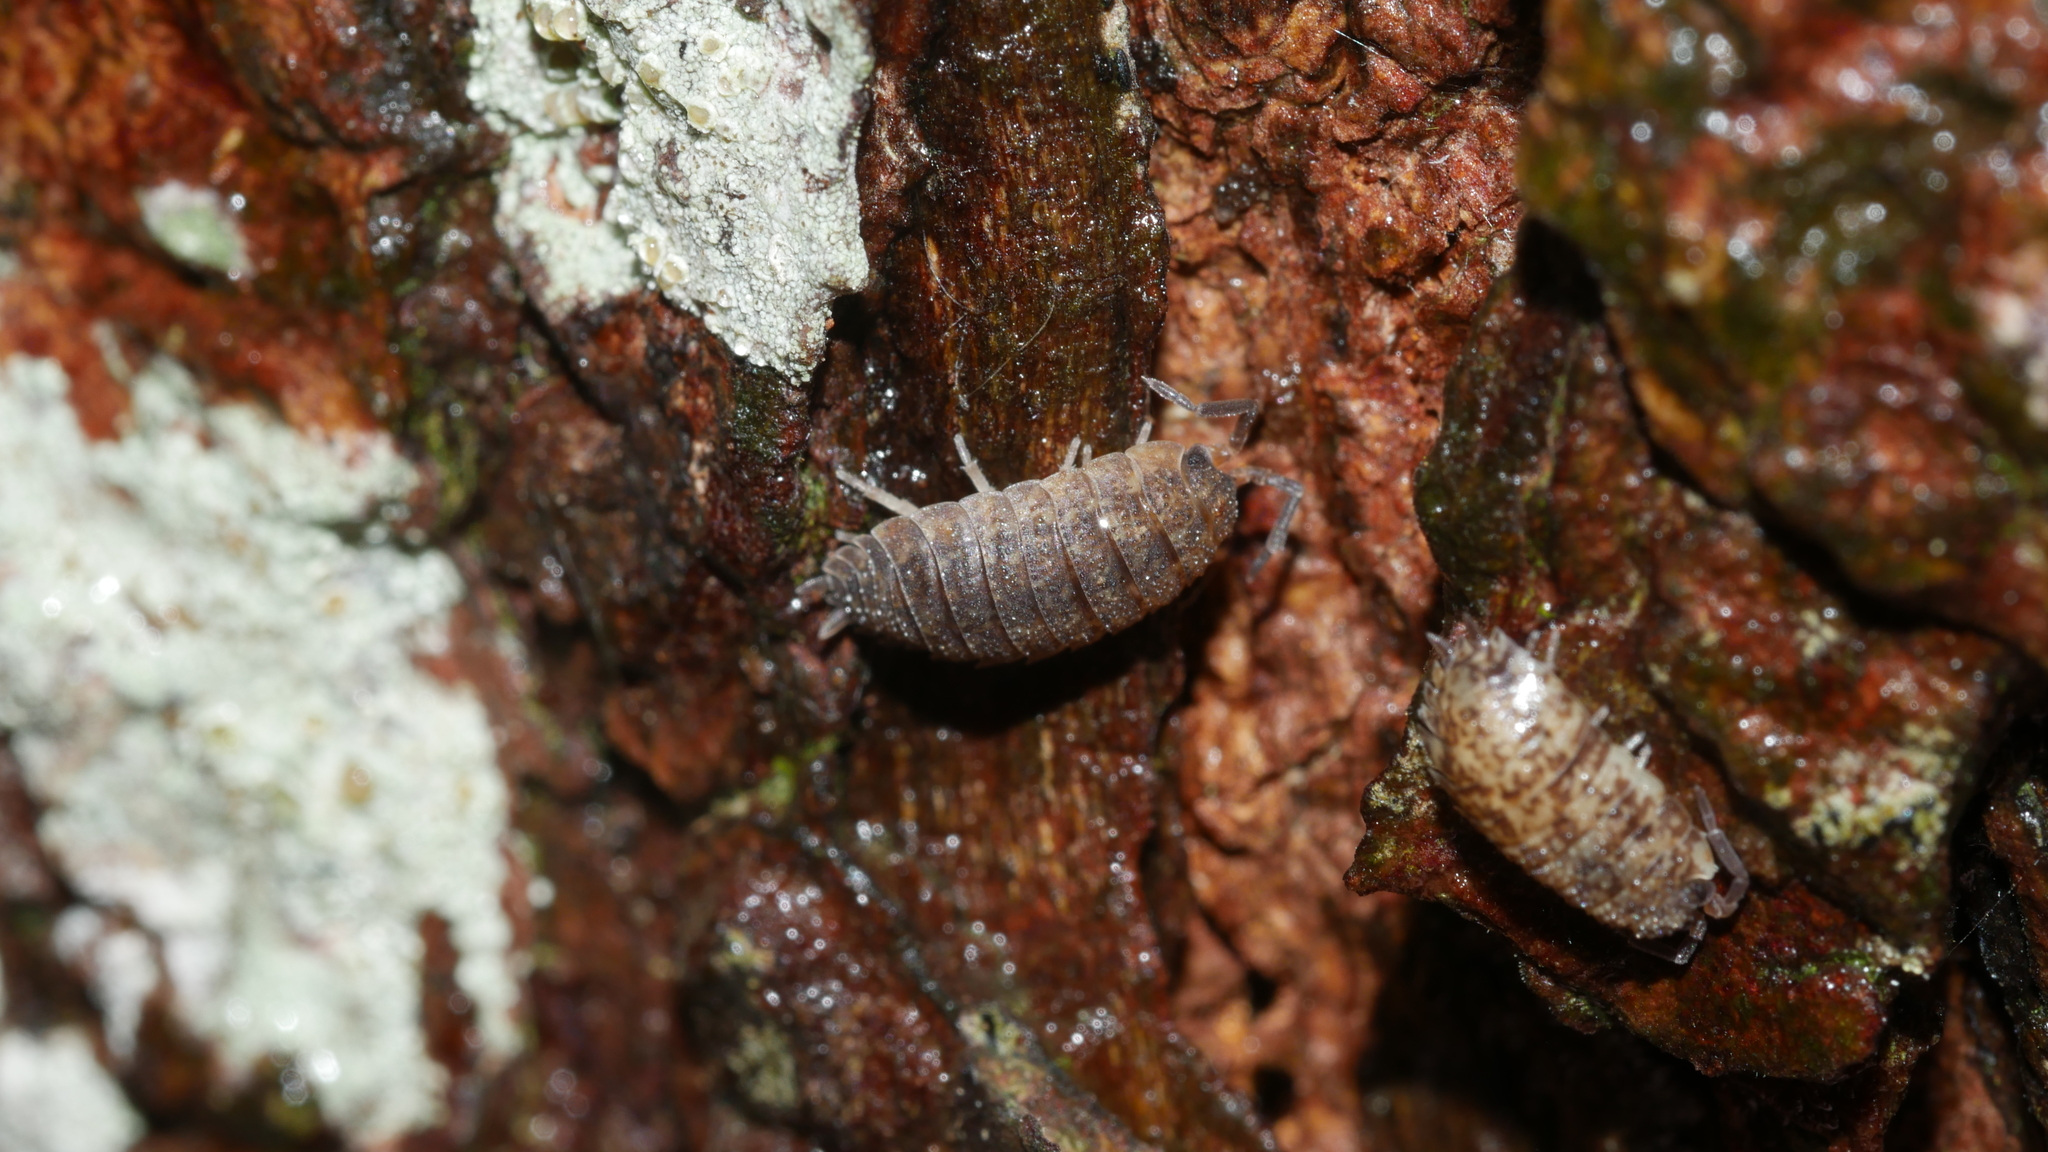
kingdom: Animalia
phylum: Arthropoda
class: Malacostraca
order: Isopoda
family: Porcellionidae
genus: Porcellio
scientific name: Porcellio scaber
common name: Common rough woodlouse
